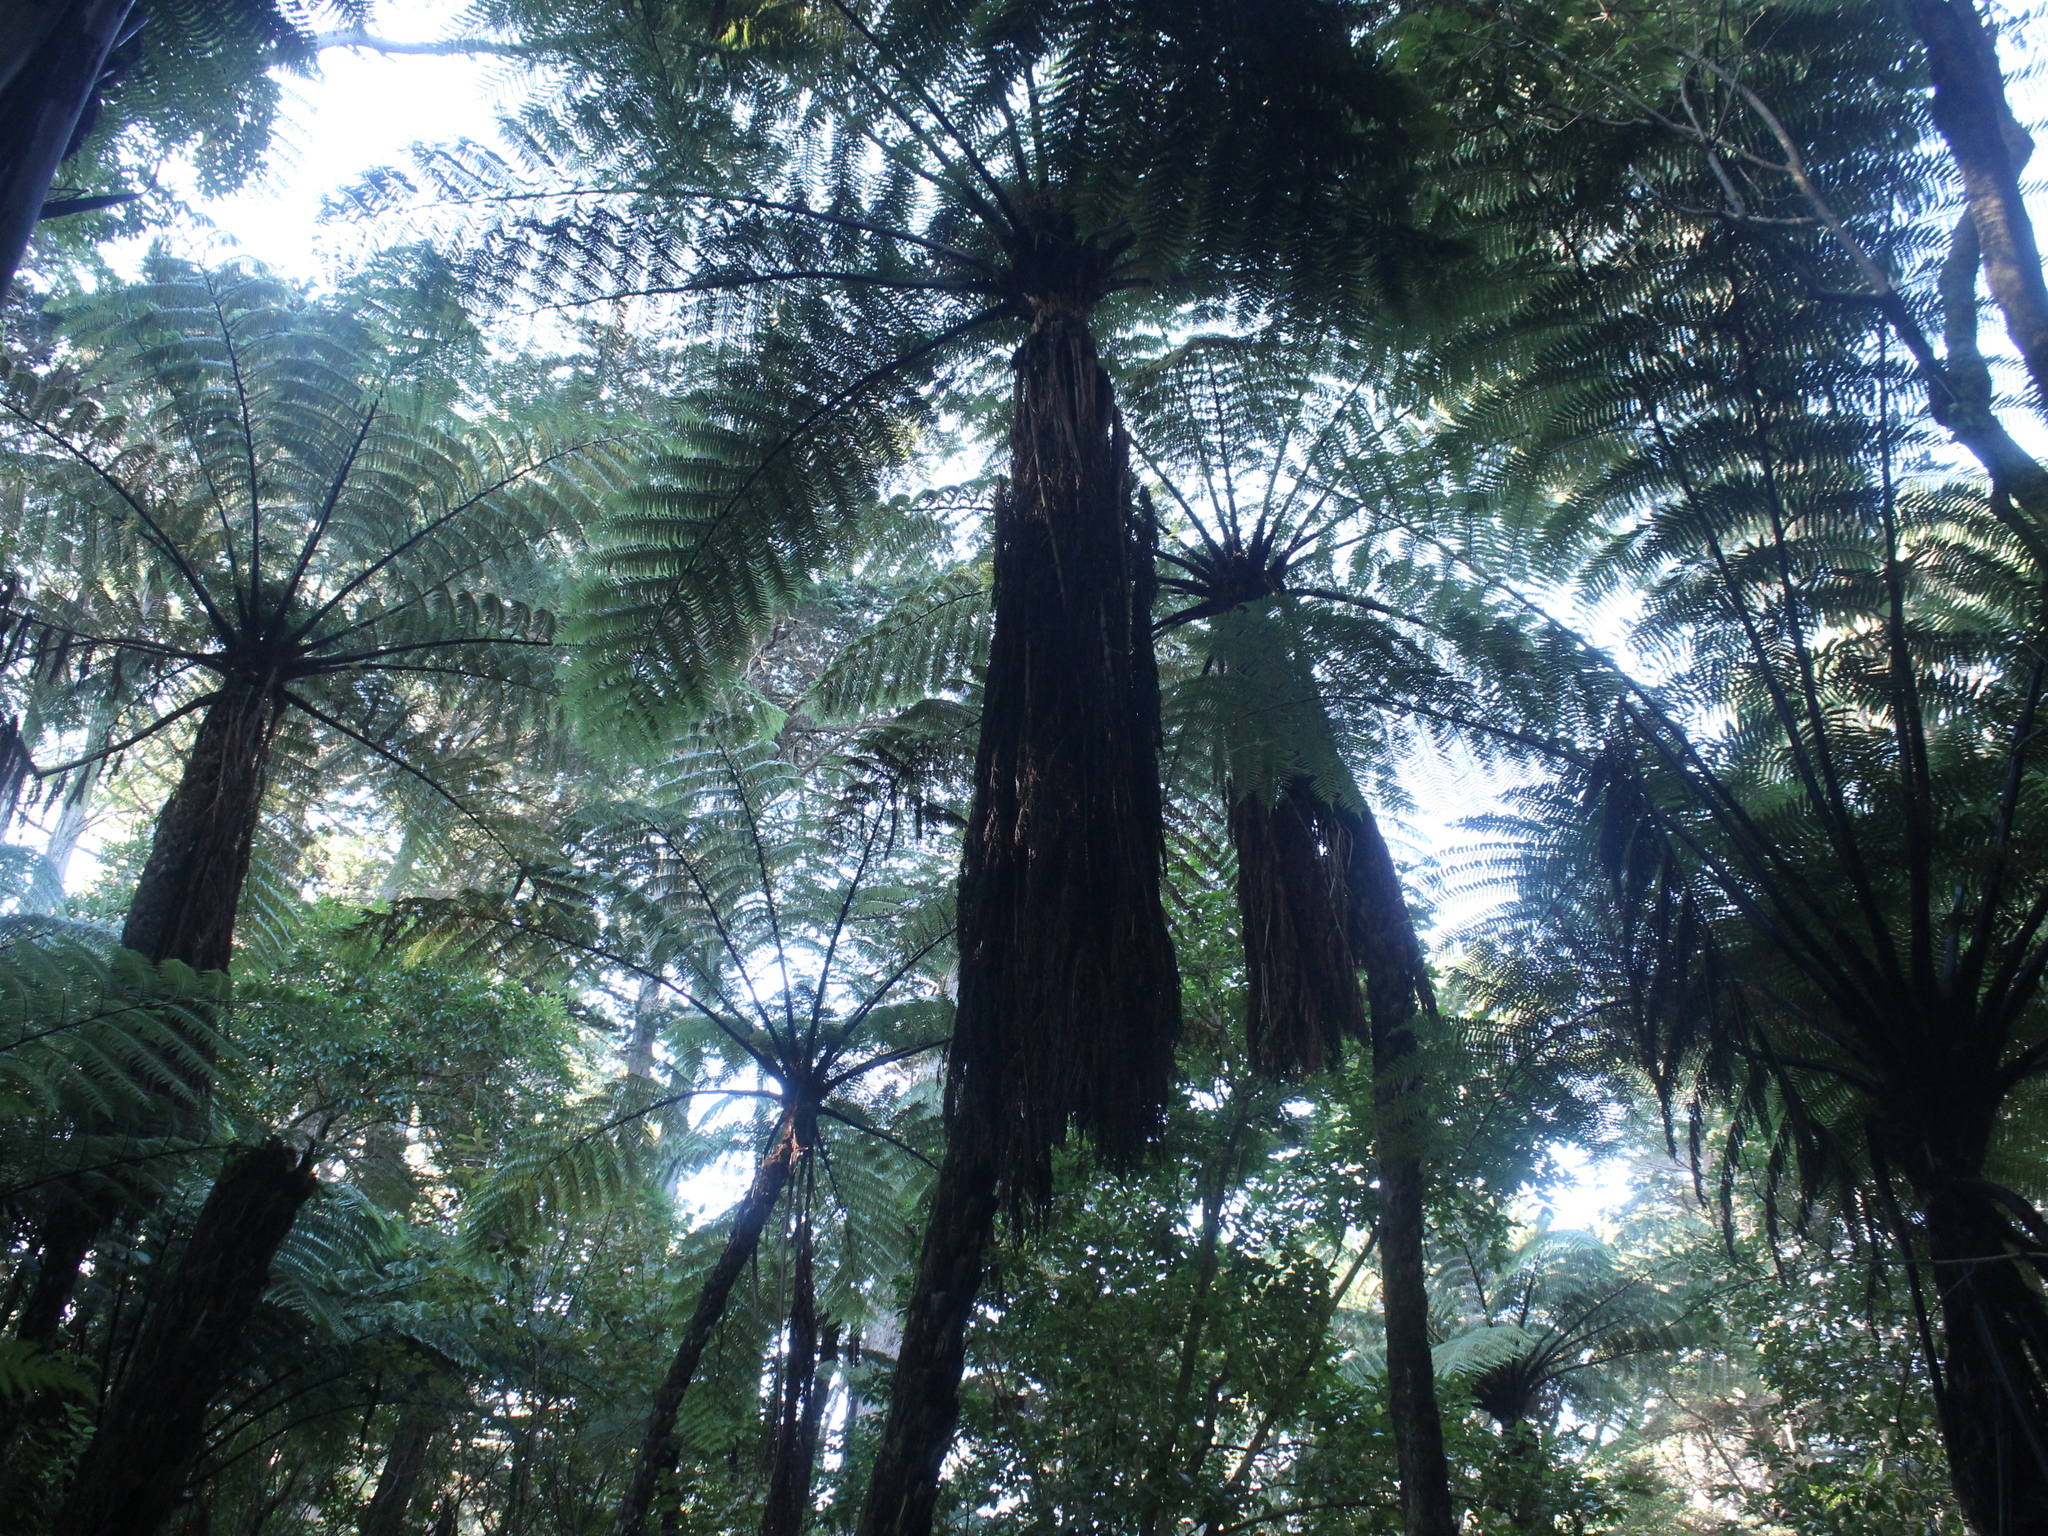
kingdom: Plantae
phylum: Tracheophyta
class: Polypodiopsida
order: Cyatheales
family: Cyatheaceae
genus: Sphaeropteris
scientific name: Sphaeropteris medullaris
